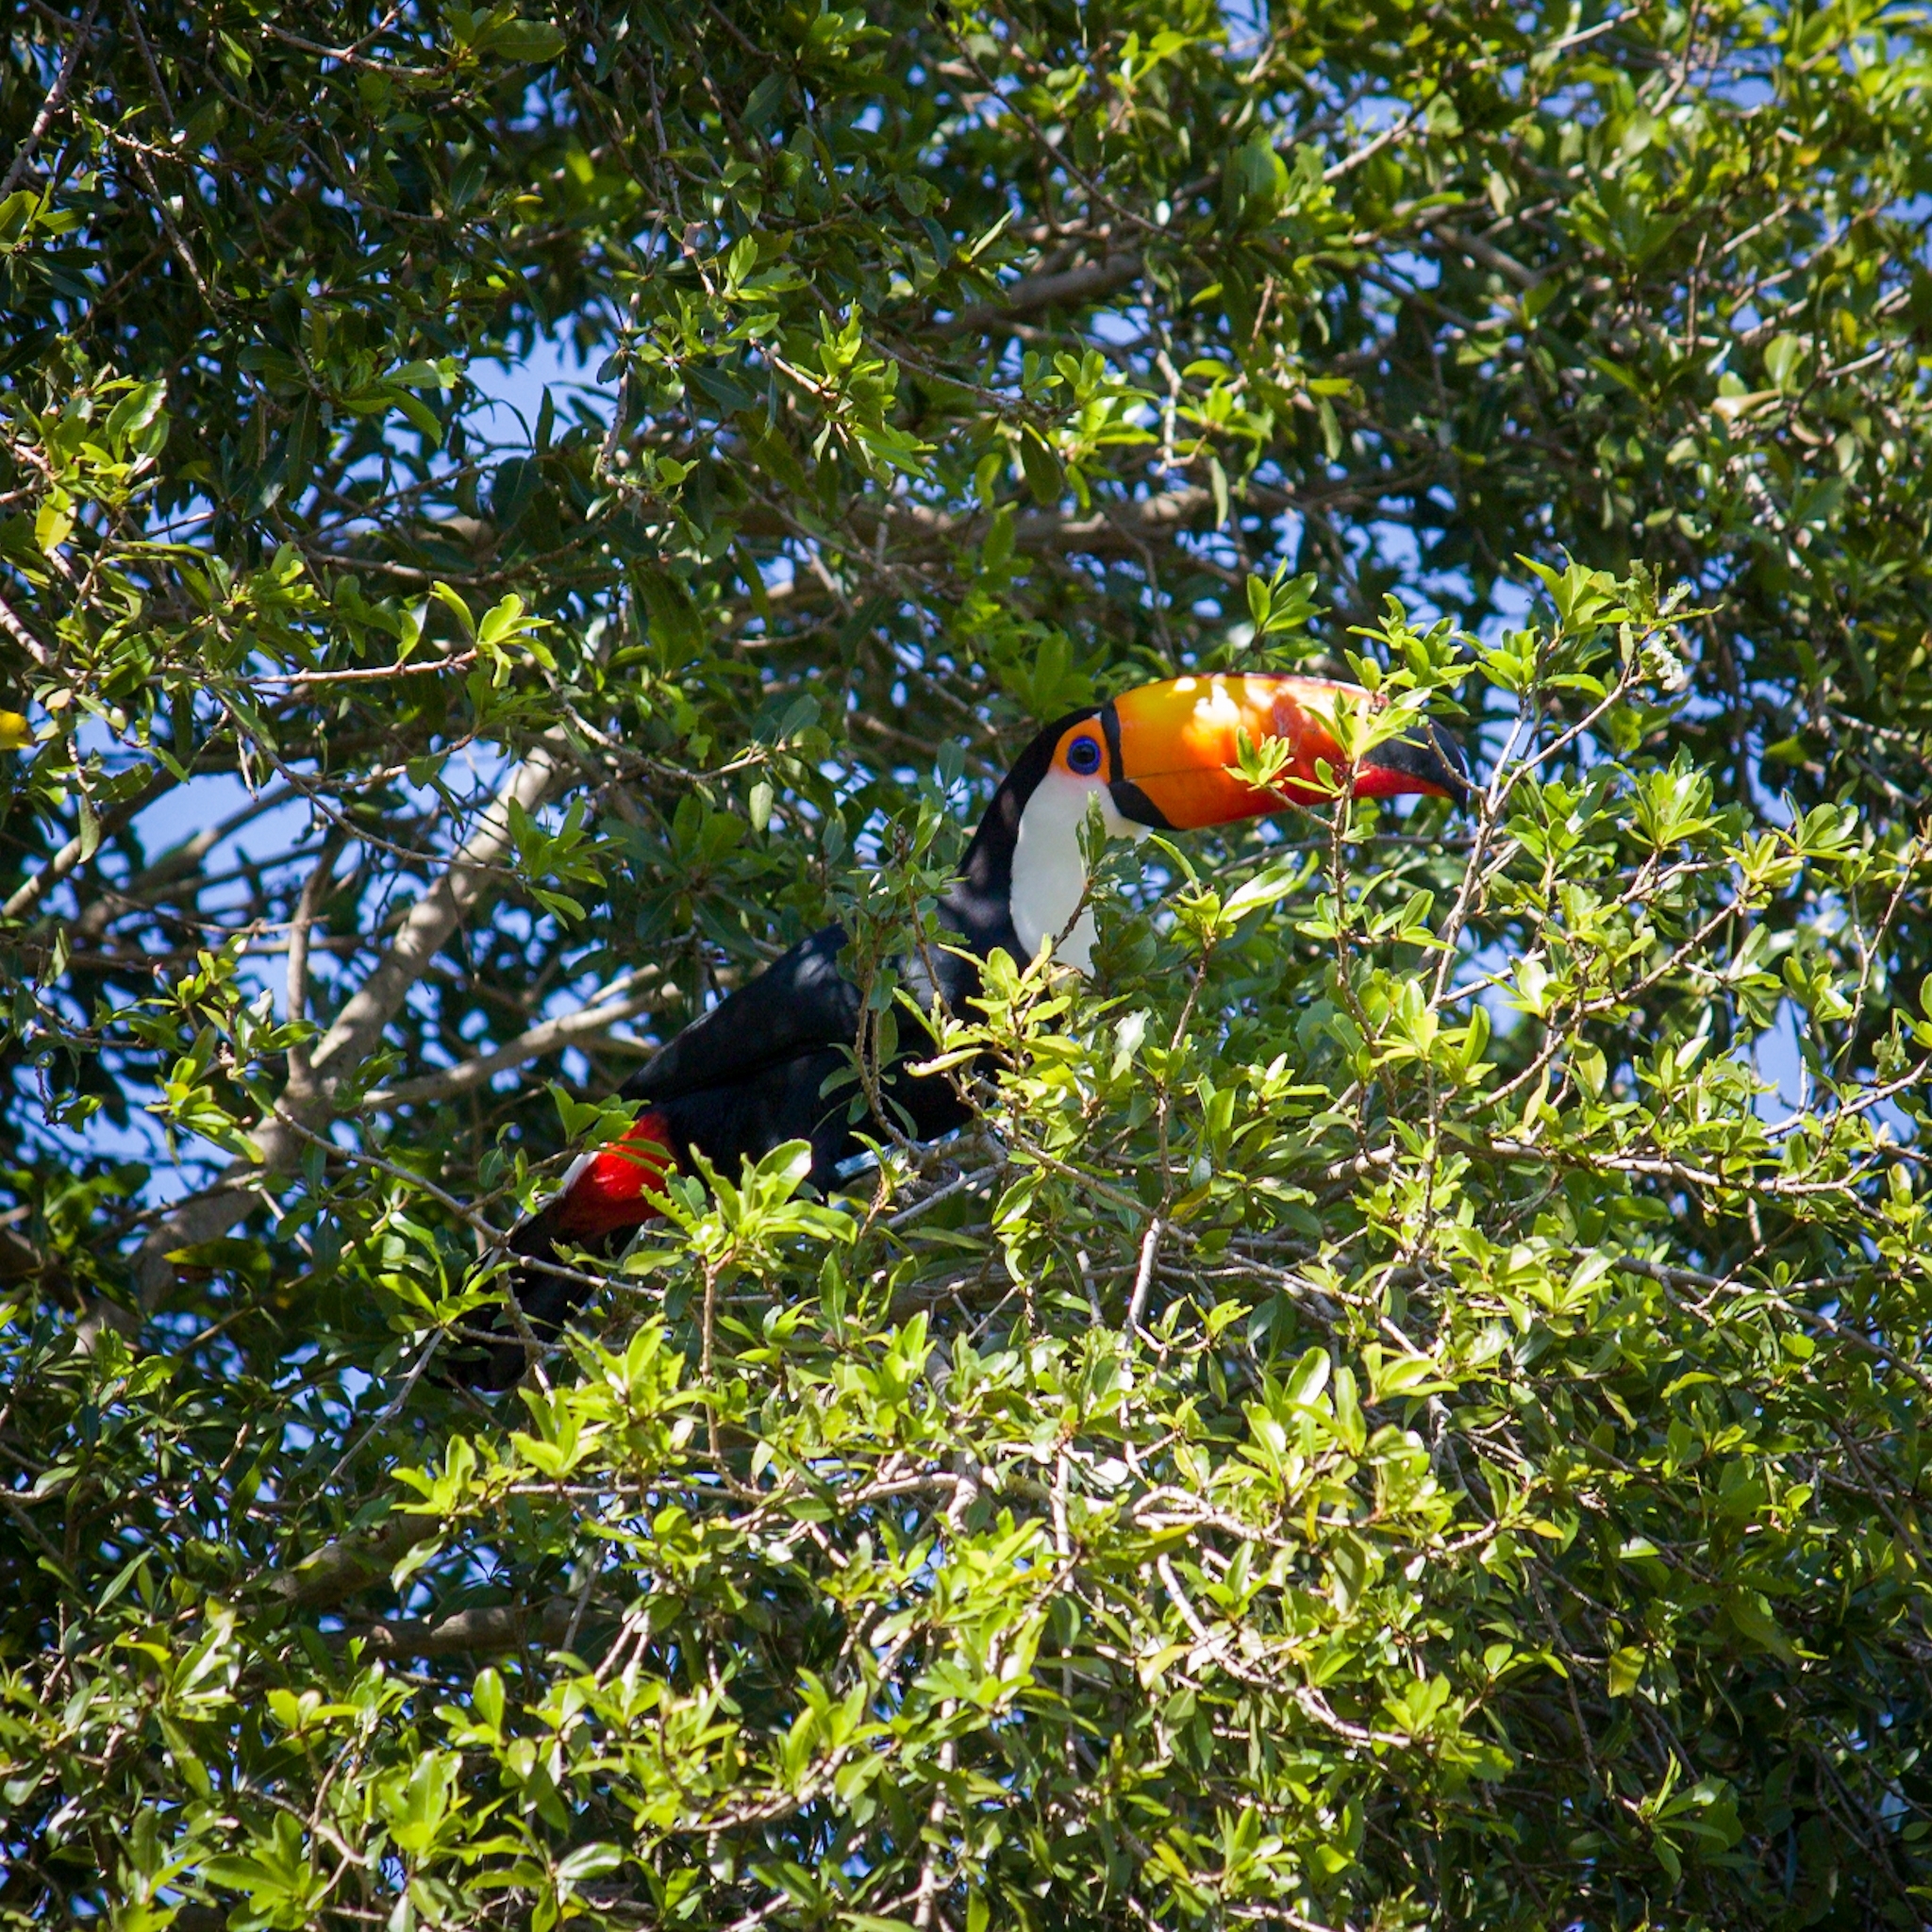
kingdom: Animalia
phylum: Chordata
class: Aves
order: Piciformes
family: Ramphastidae
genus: Ramphastos
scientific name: Ramphastos toco
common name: Toco toucan
